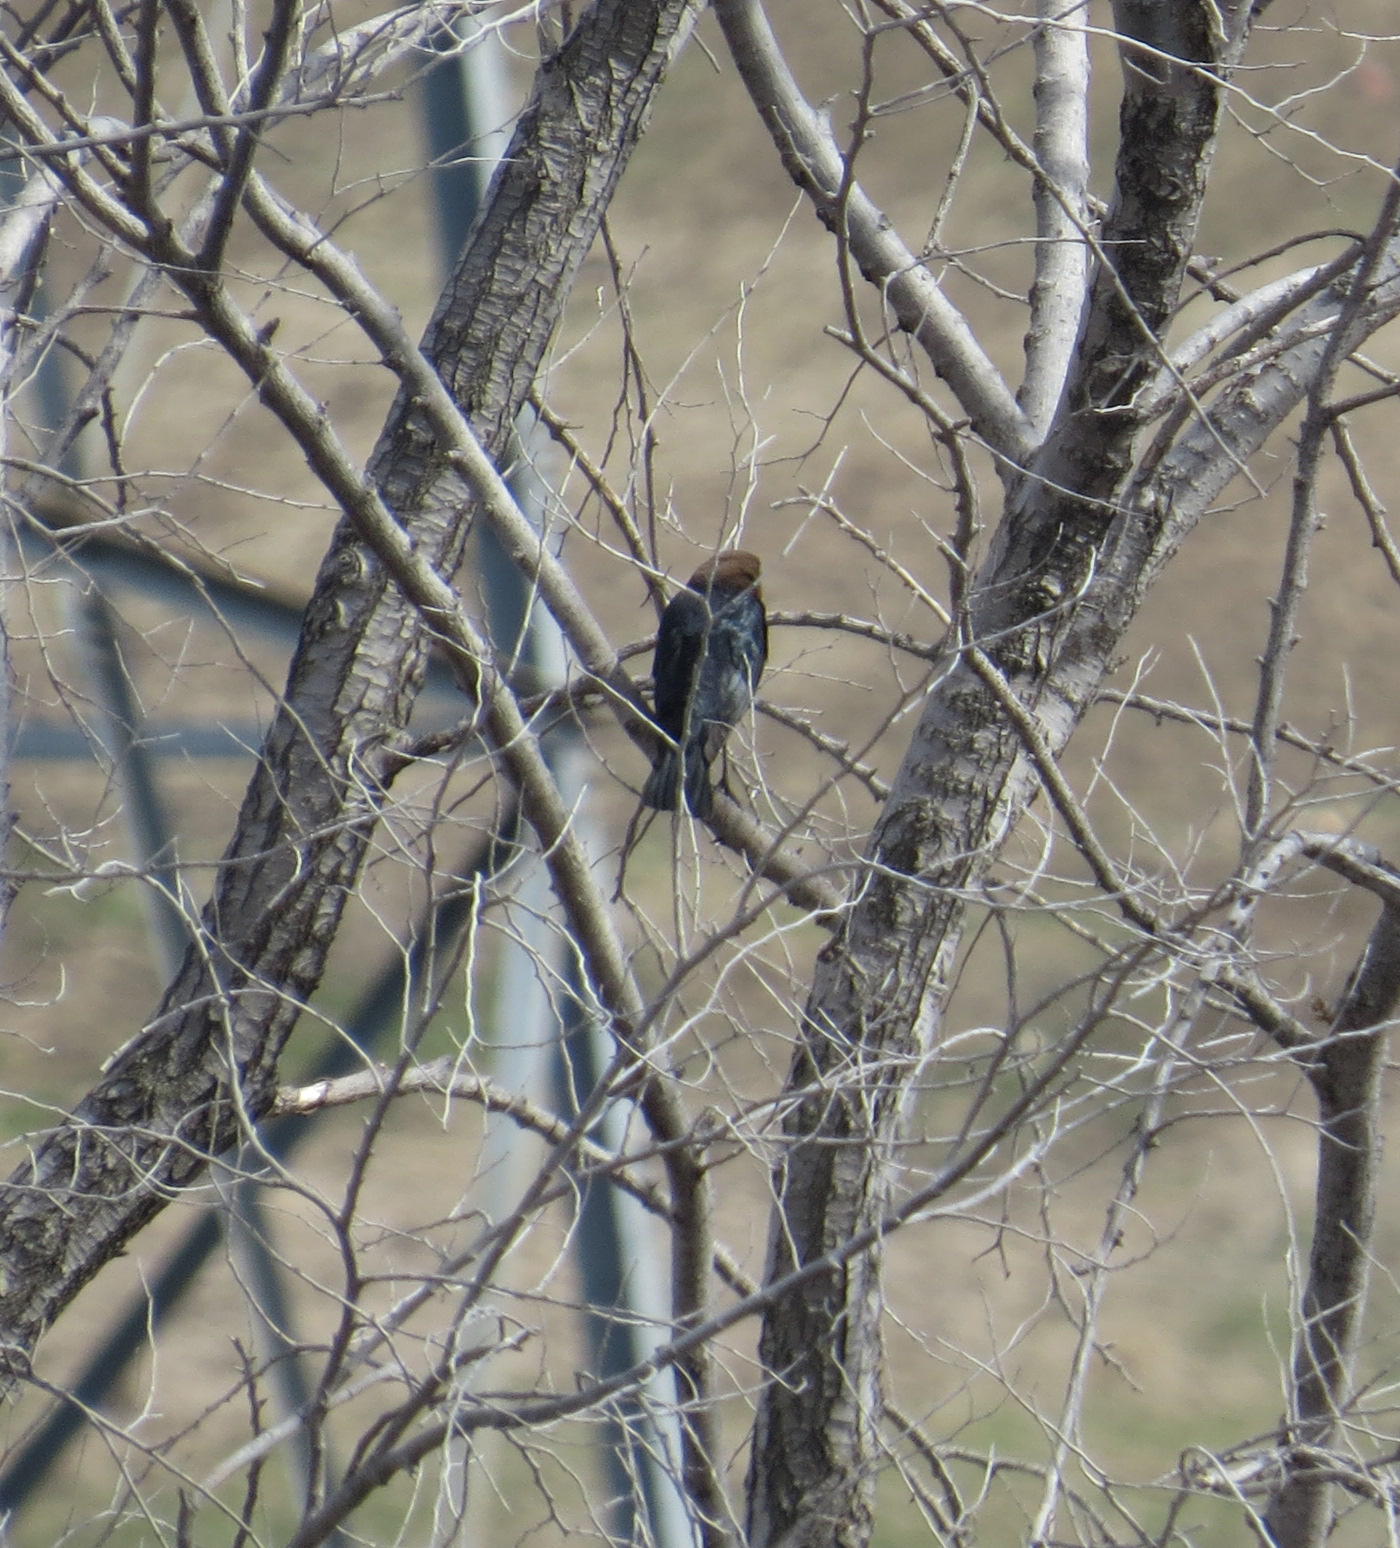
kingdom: Animalia
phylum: Chordata
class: Aves
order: Passeriformes
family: Icteridae
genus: Molothrus
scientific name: Molothrus ater
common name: Brown-headed cowbird
